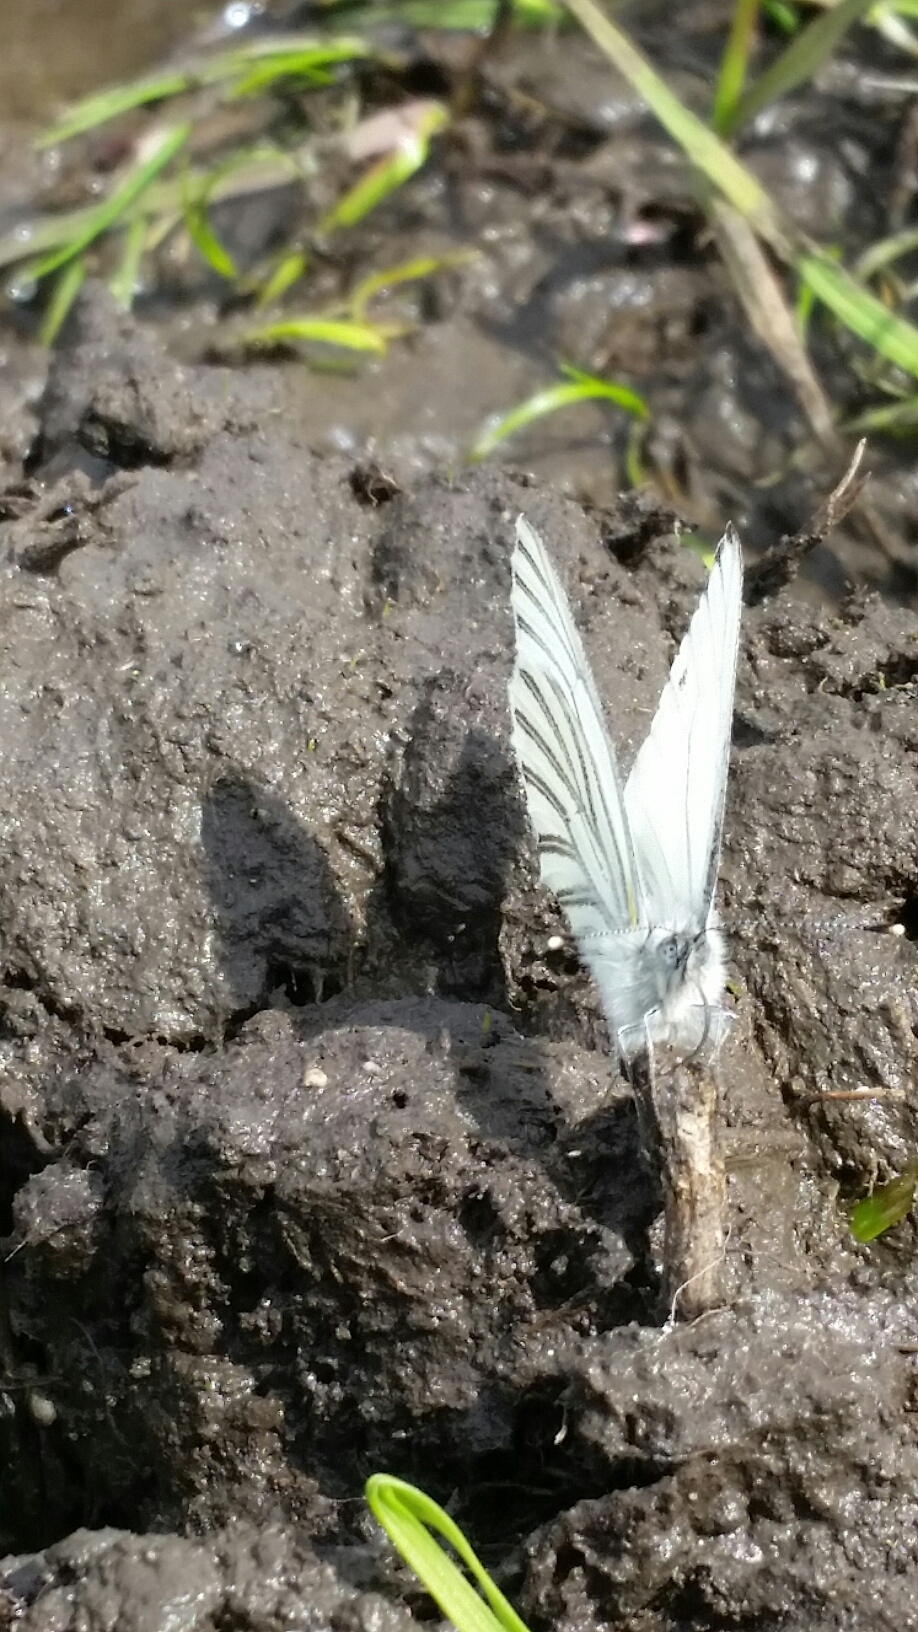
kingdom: Animalia
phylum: Arthropoda
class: Insecta
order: Lepidoptera
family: Pieridae
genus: Pieris
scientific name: Pieris marginalis
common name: Margined white
